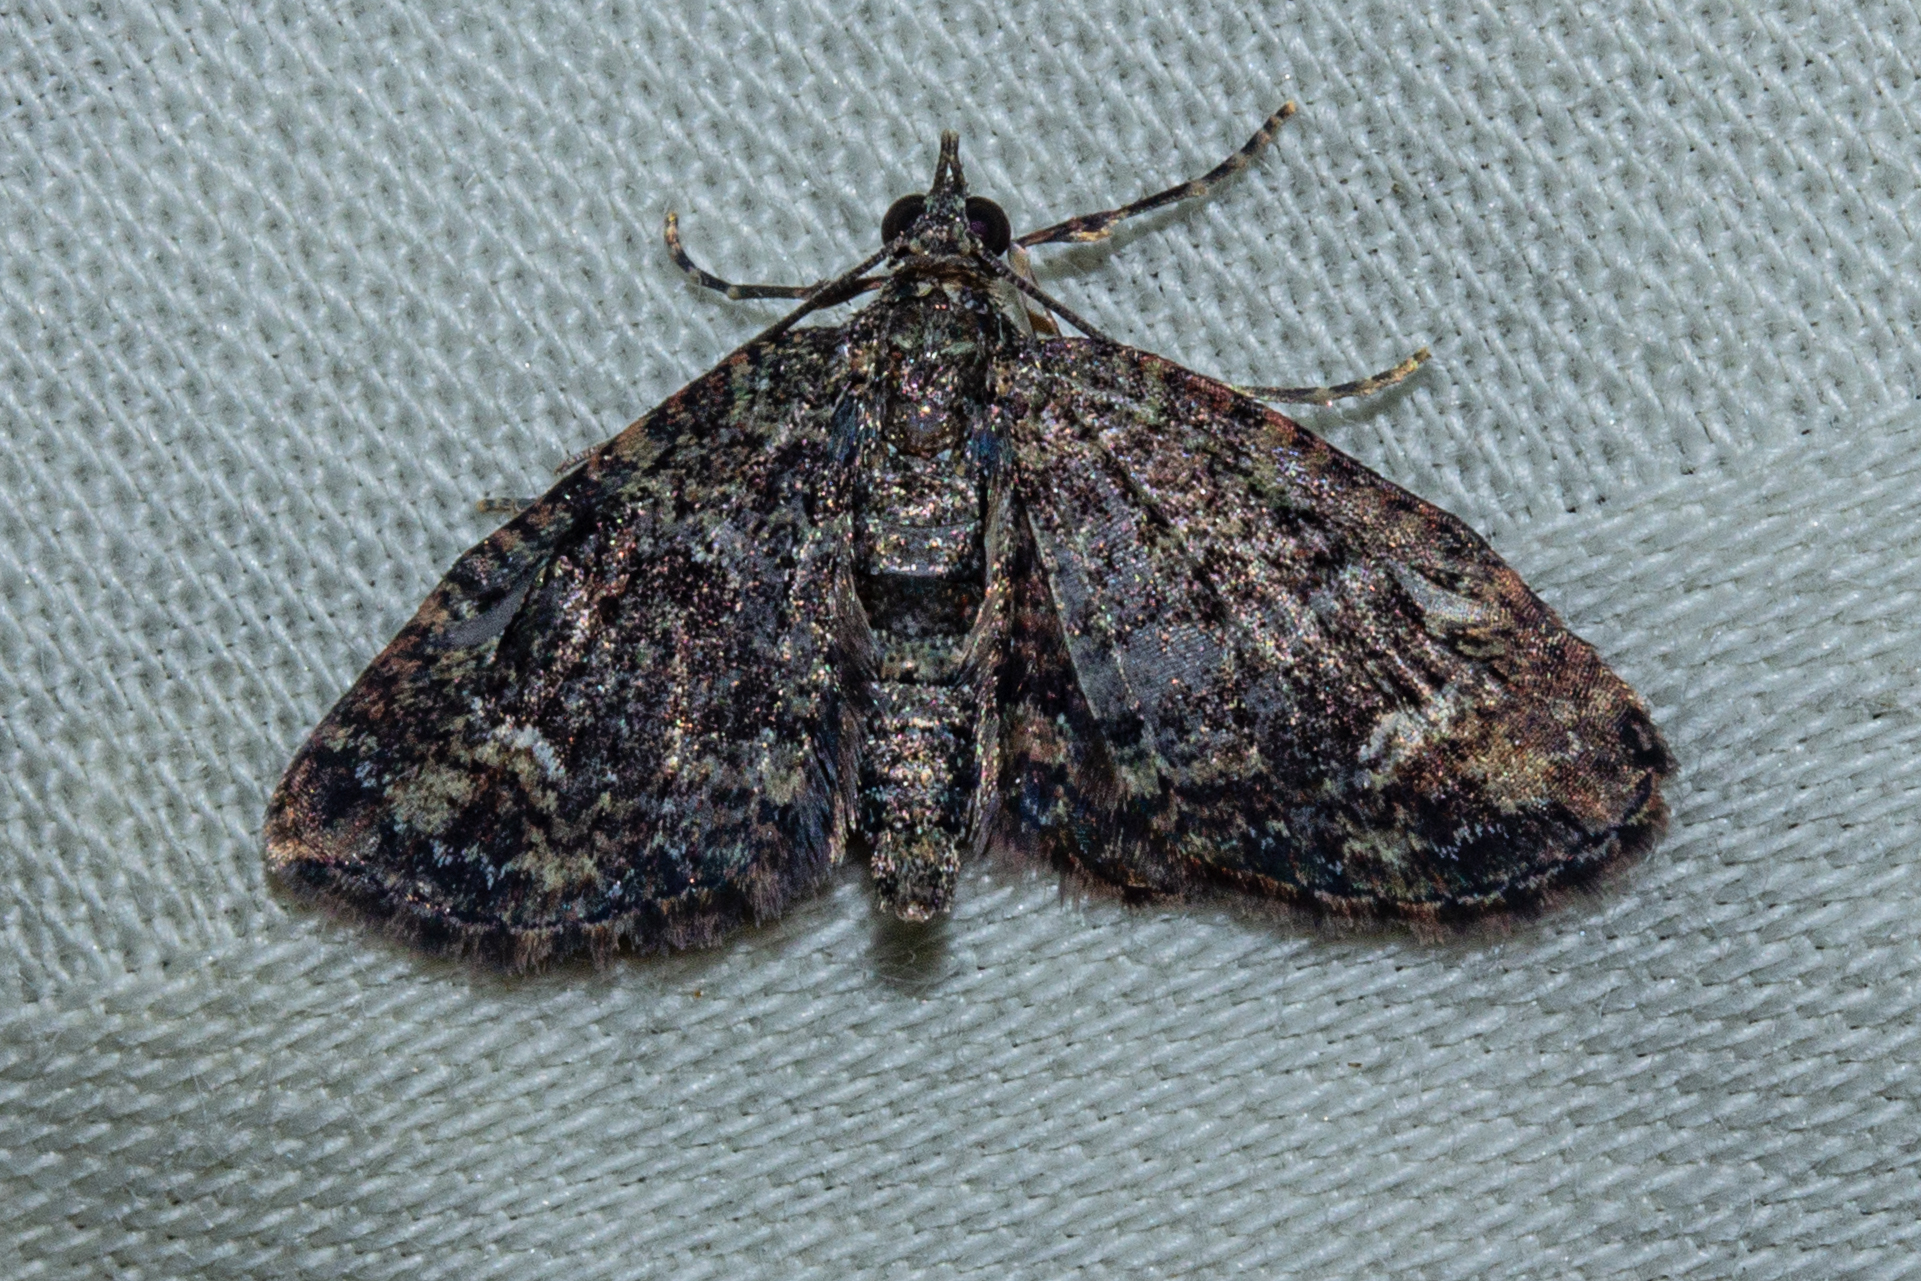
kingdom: Animalia
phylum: Arthropoda
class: Insecta
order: Lepidoptera
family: Geometridae
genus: Pasiphilodes
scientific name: Pasiphilodes testulata
